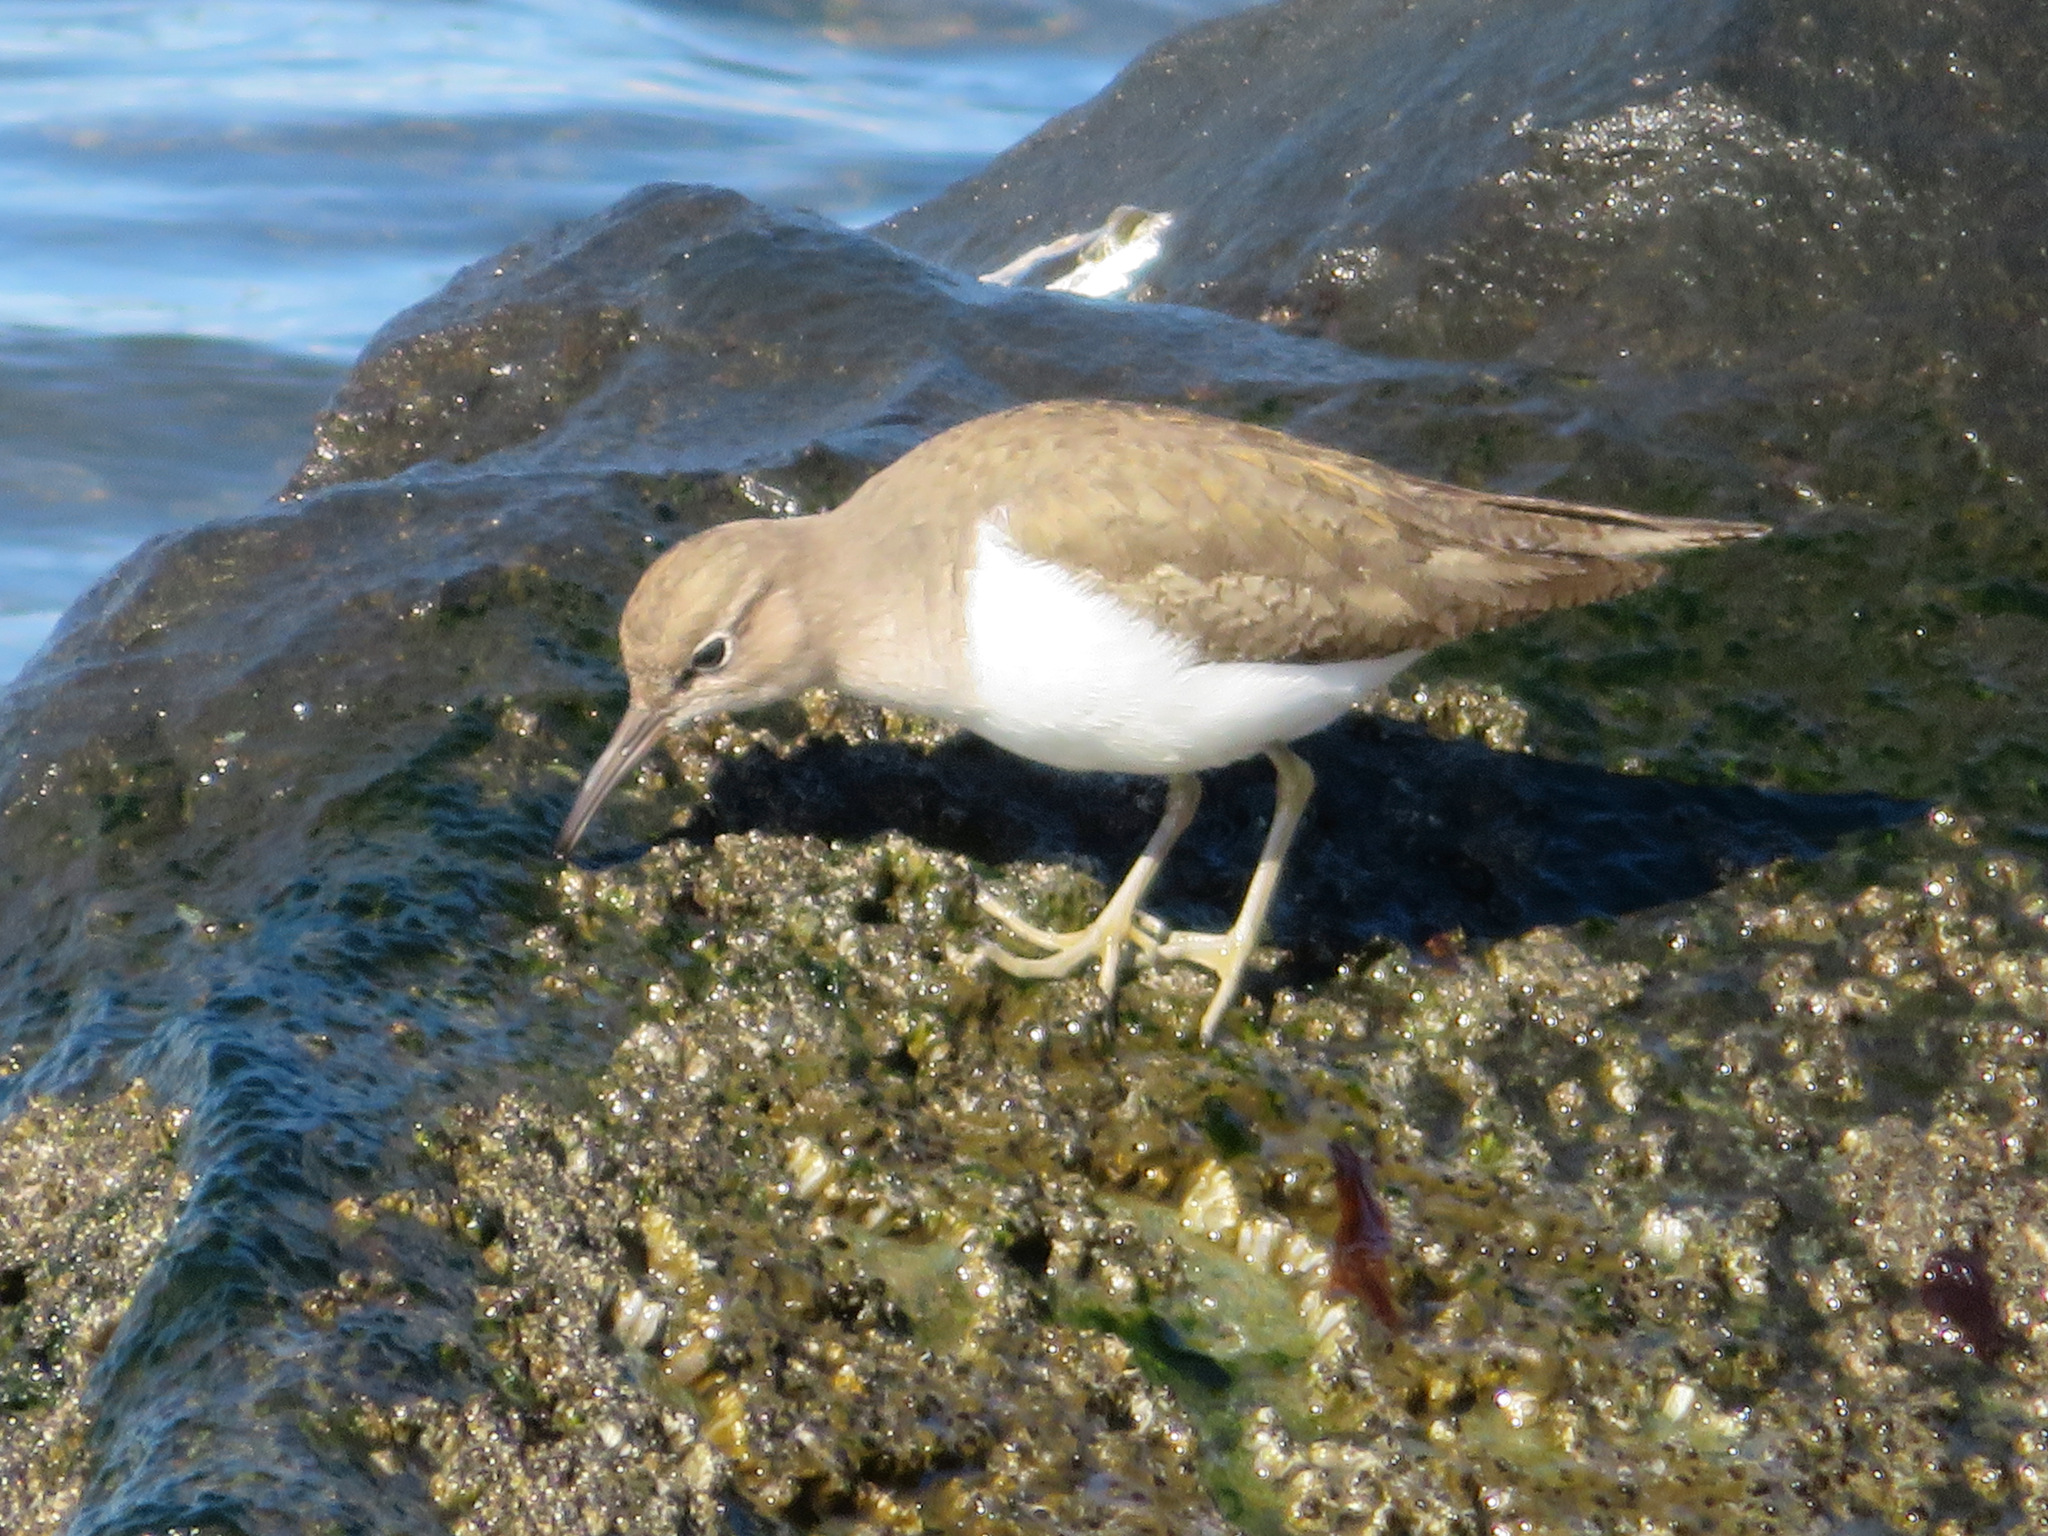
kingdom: Animalia
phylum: Chordata
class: Aves
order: Charadriiformes
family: Scolopacidae
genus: Actitis
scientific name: Actitis hypoleucos
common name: Common sandpiper
